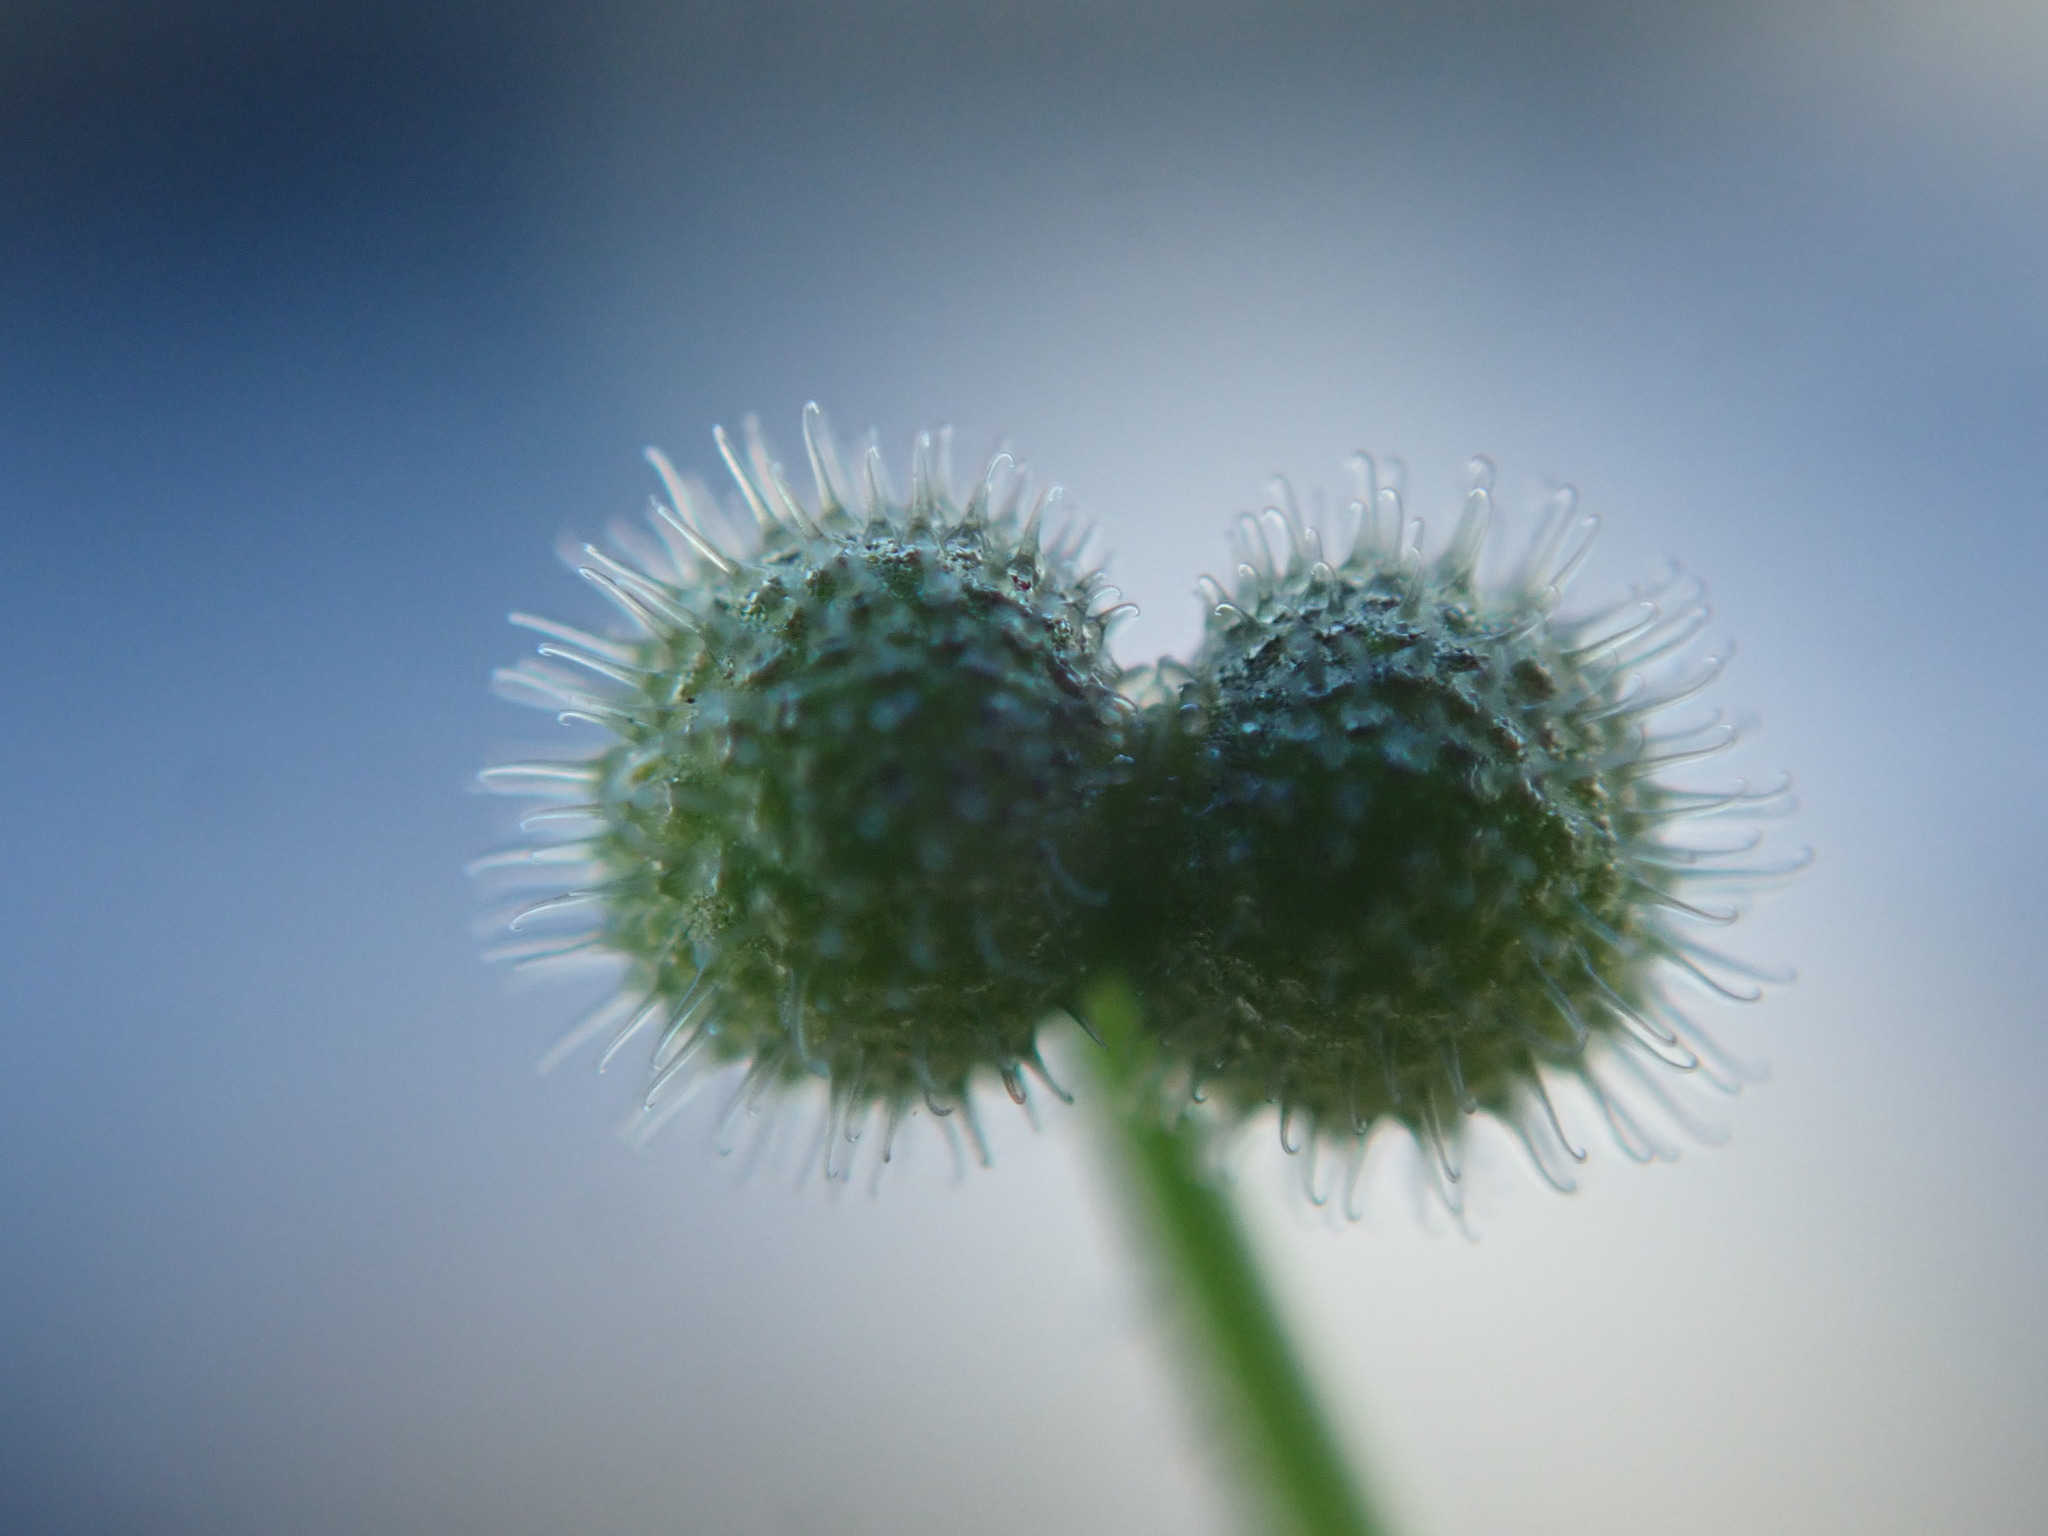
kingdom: Plantae
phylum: Tracheophyta
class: Magnoliopsida
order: Gentianales
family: Rubiaceae
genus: Galium
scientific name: Galium aparine
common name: Cleavers
